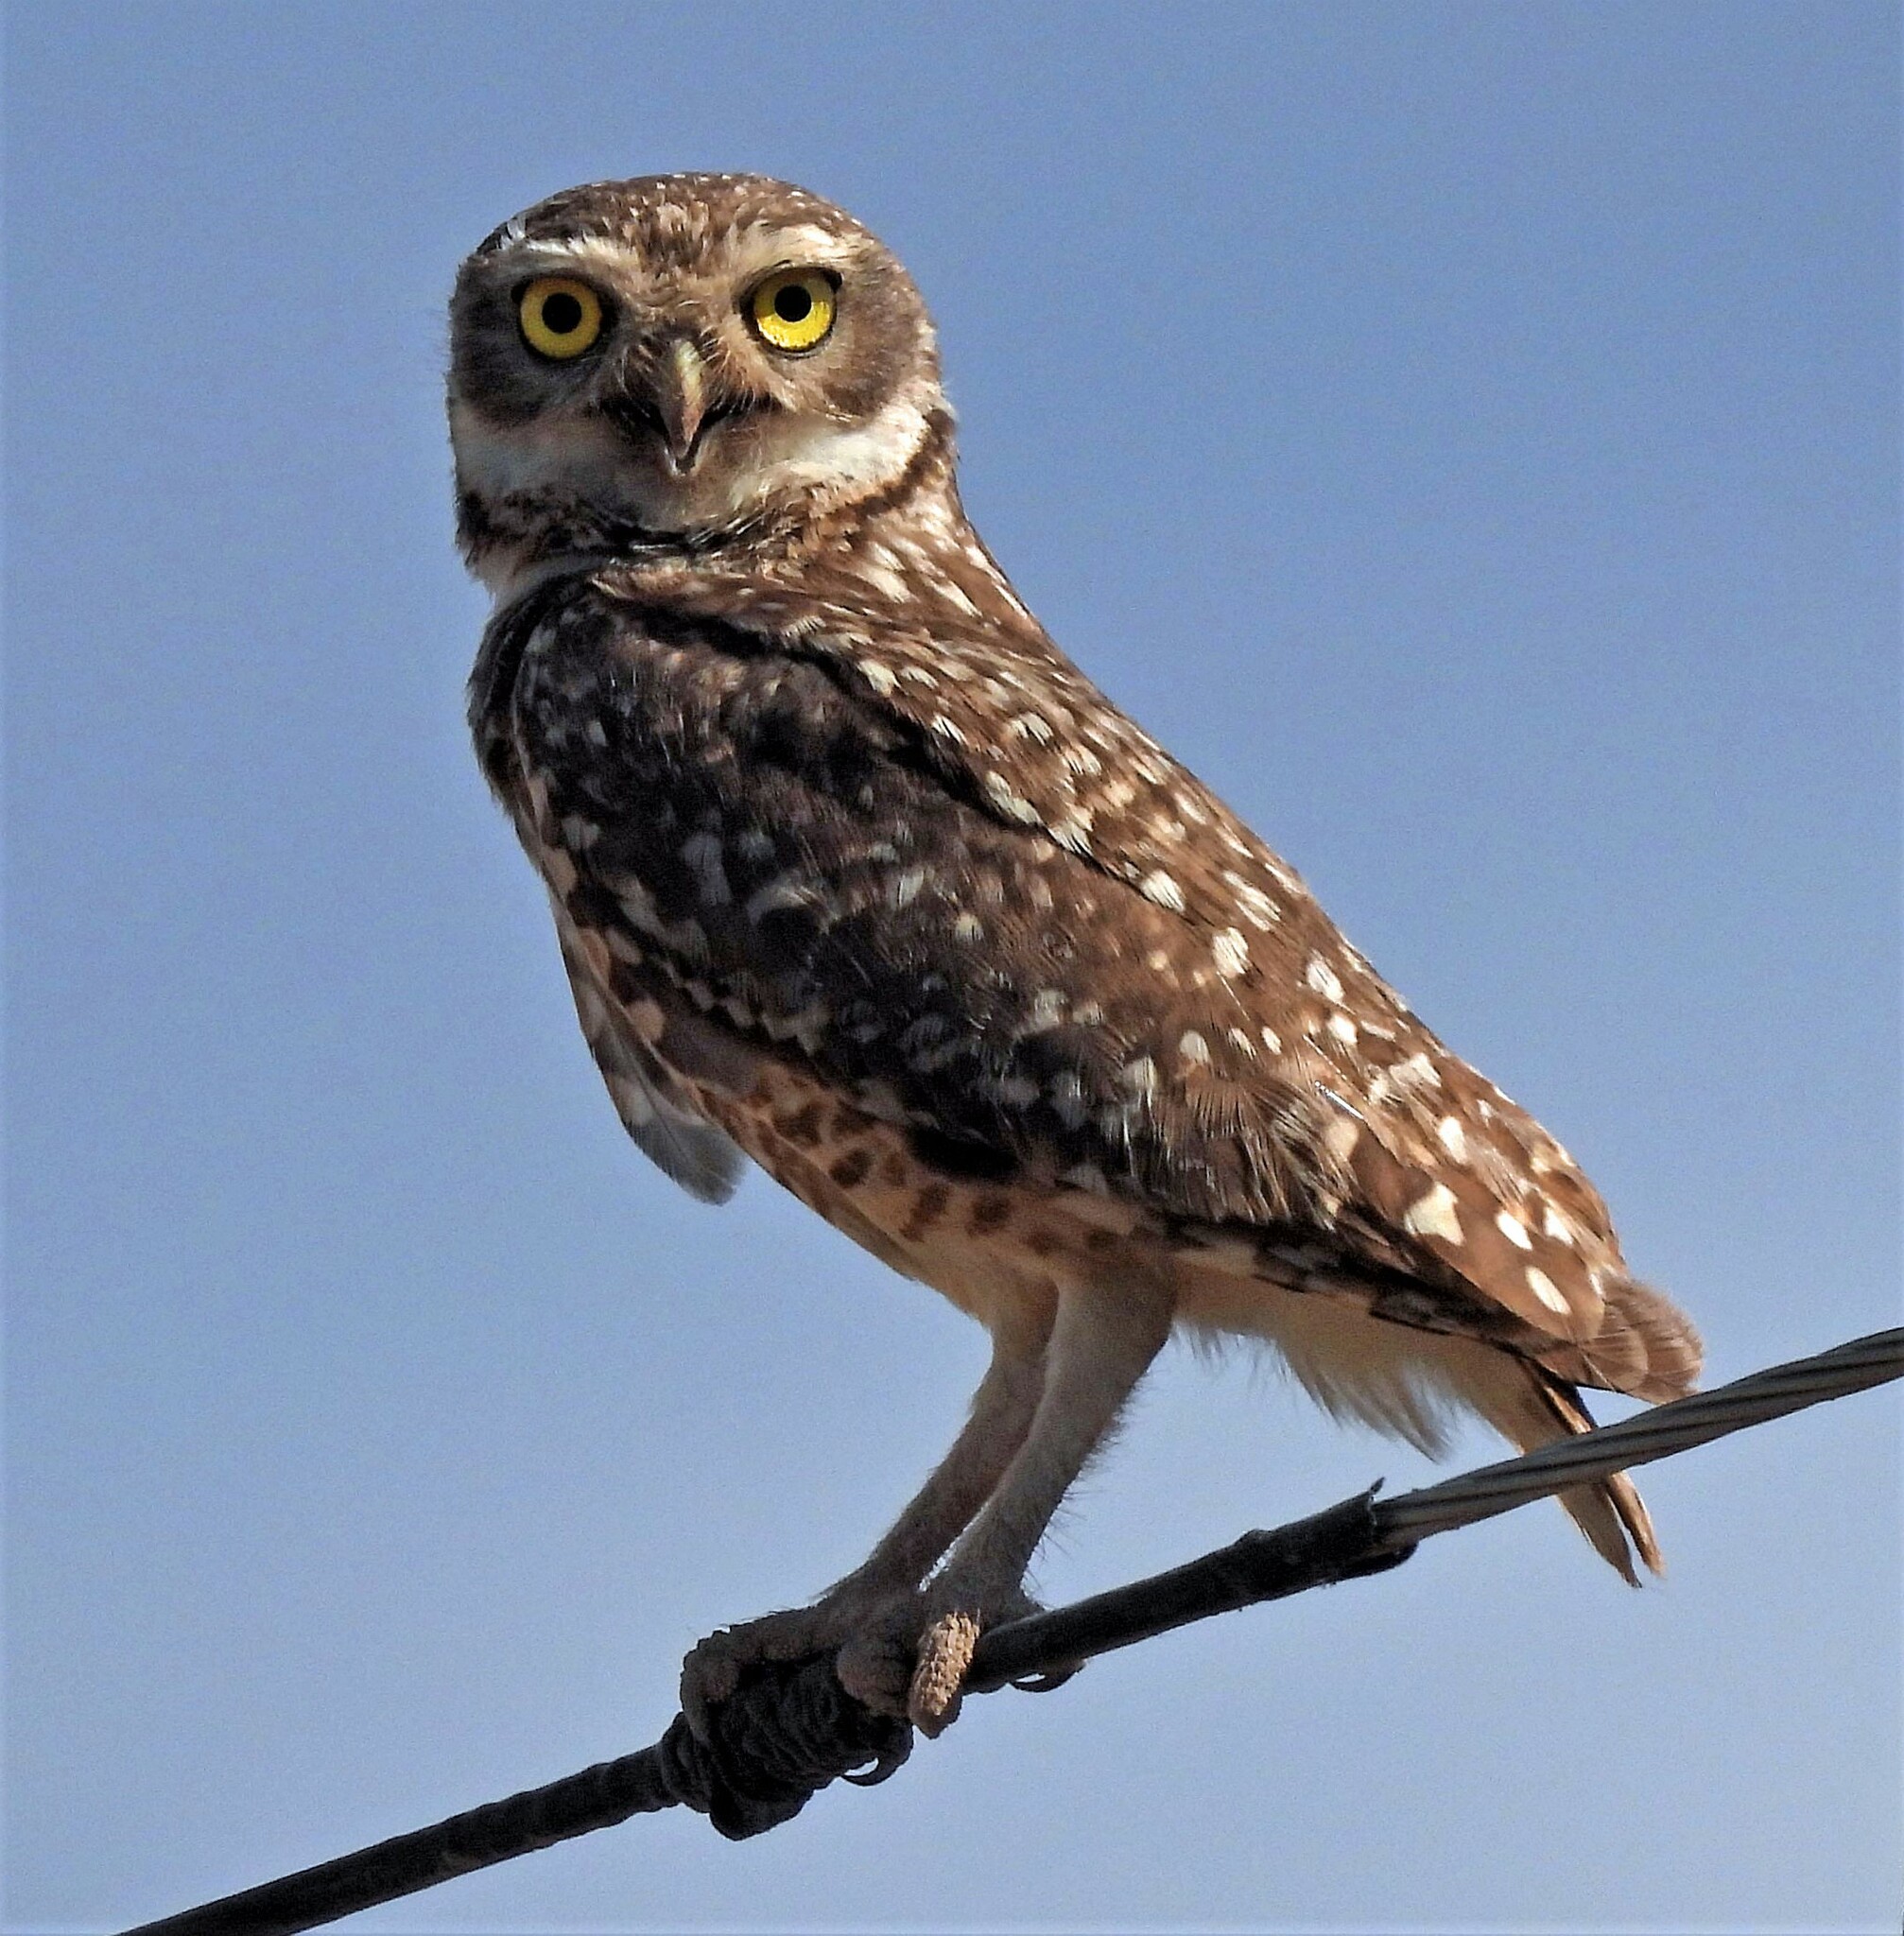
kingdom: Animalia
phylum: Chordata
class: Aves
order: Strigiformes
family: Strigidae
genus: Athene
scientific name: Athene cunicularia
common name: Burrowing owl
